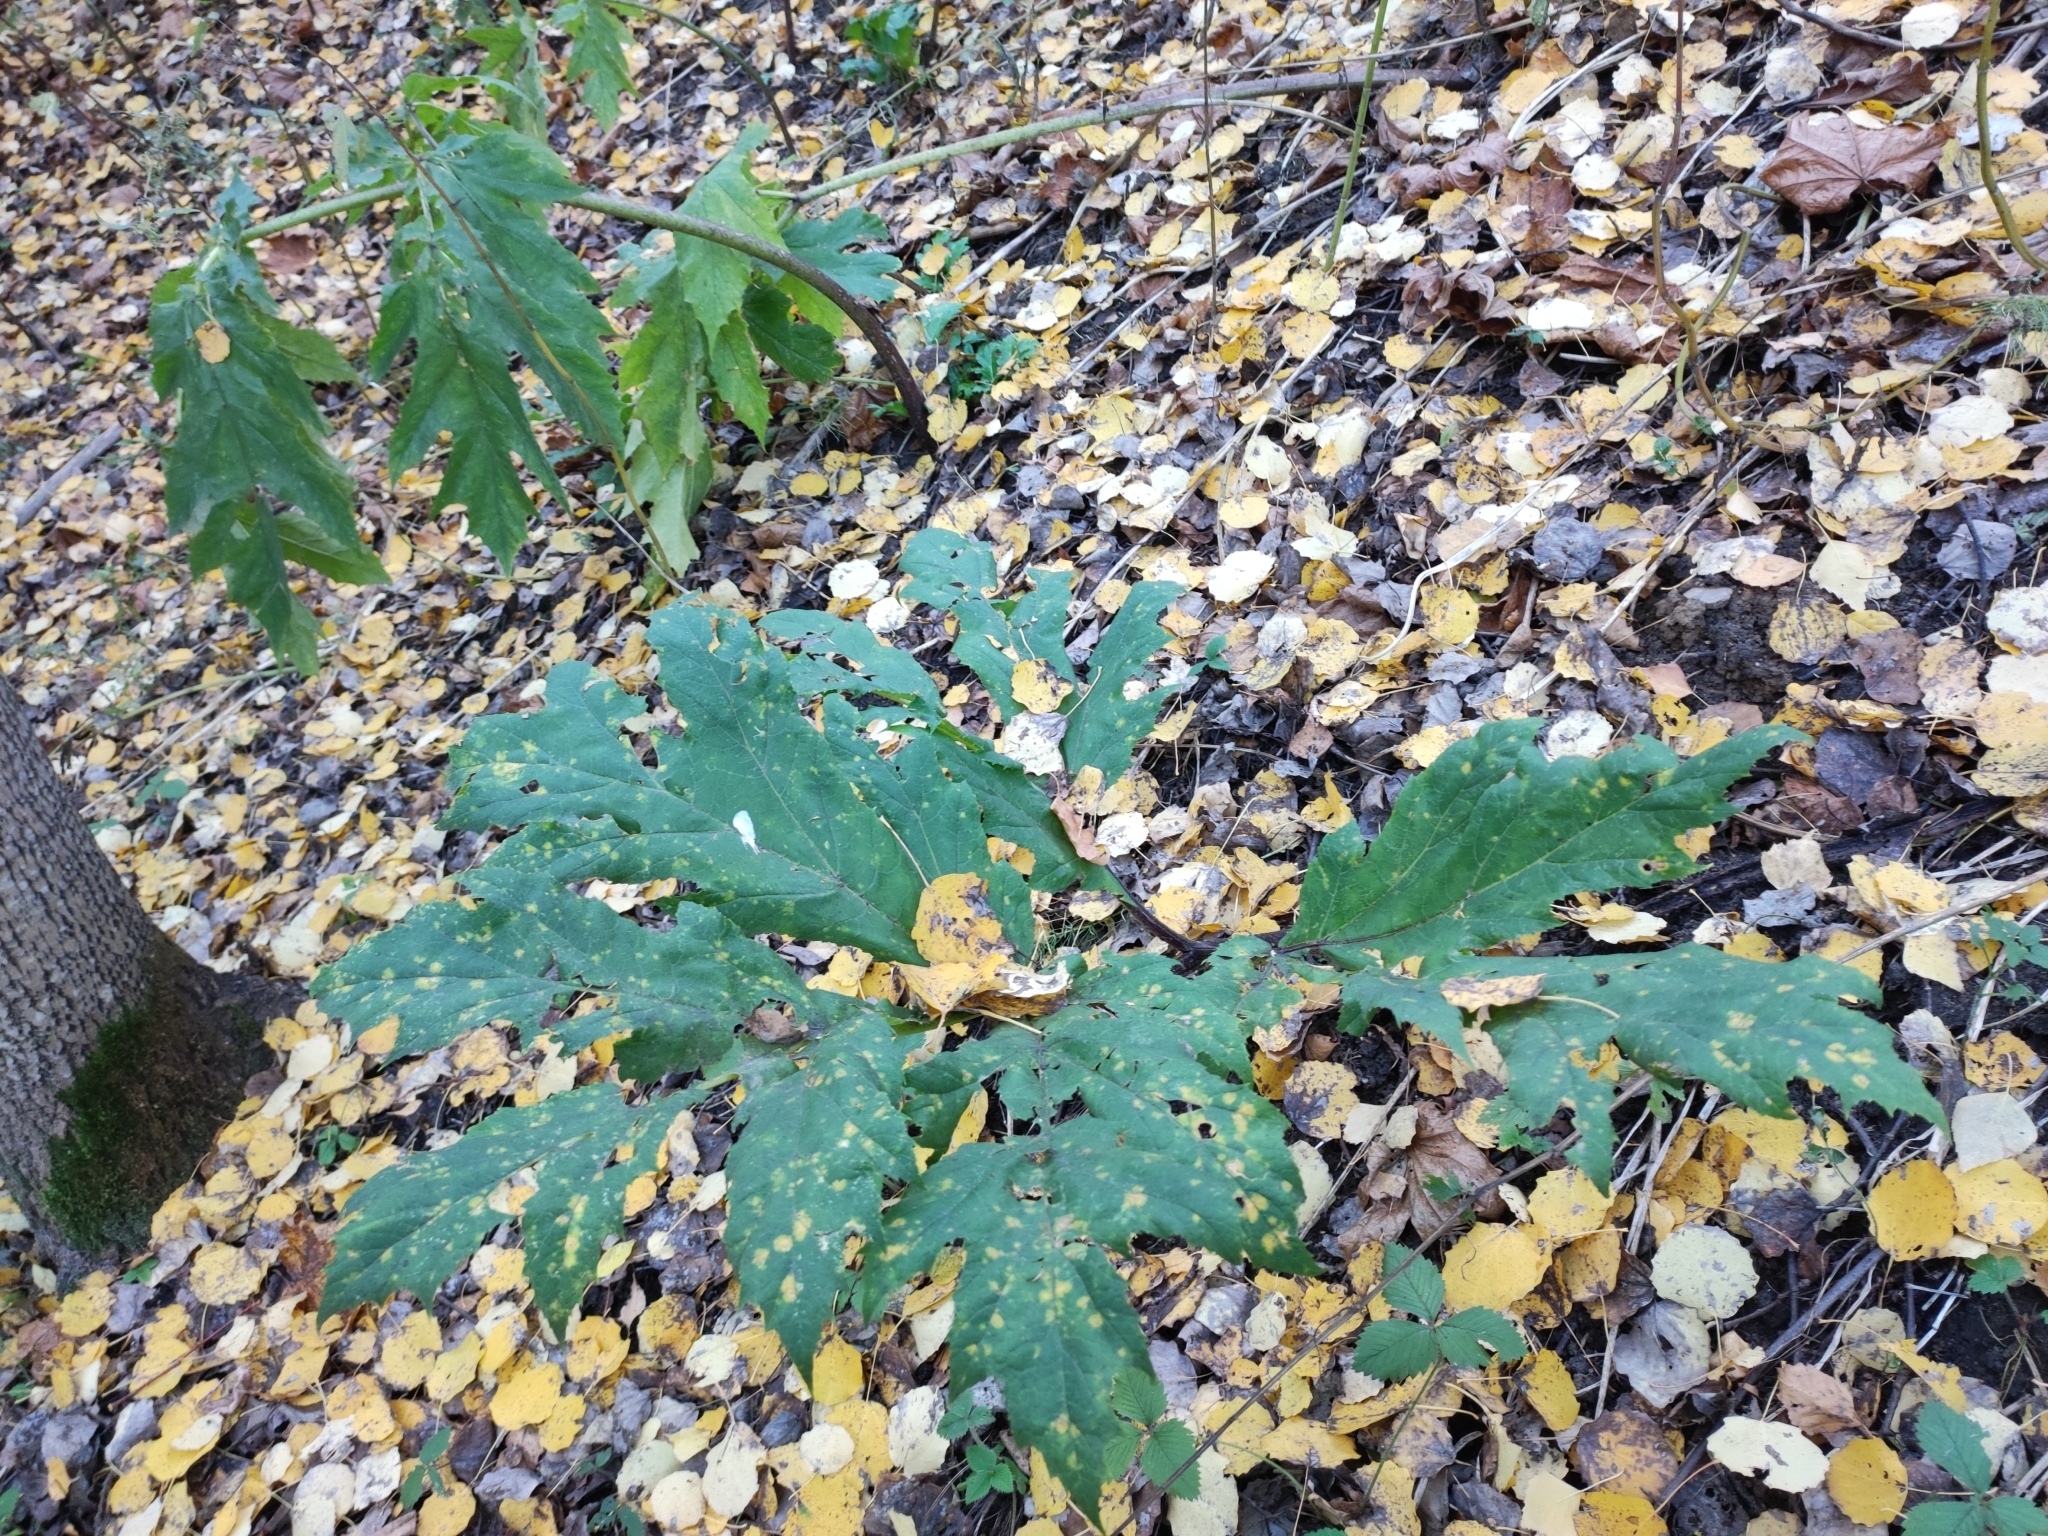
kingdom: Plantae
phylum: Tracheophyta
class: Magnoliopsida
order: Apiales
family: Apiaceae
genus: Heracleum
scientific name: Heracleum sosnowskyi
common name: Sosnowsky's hogweed
